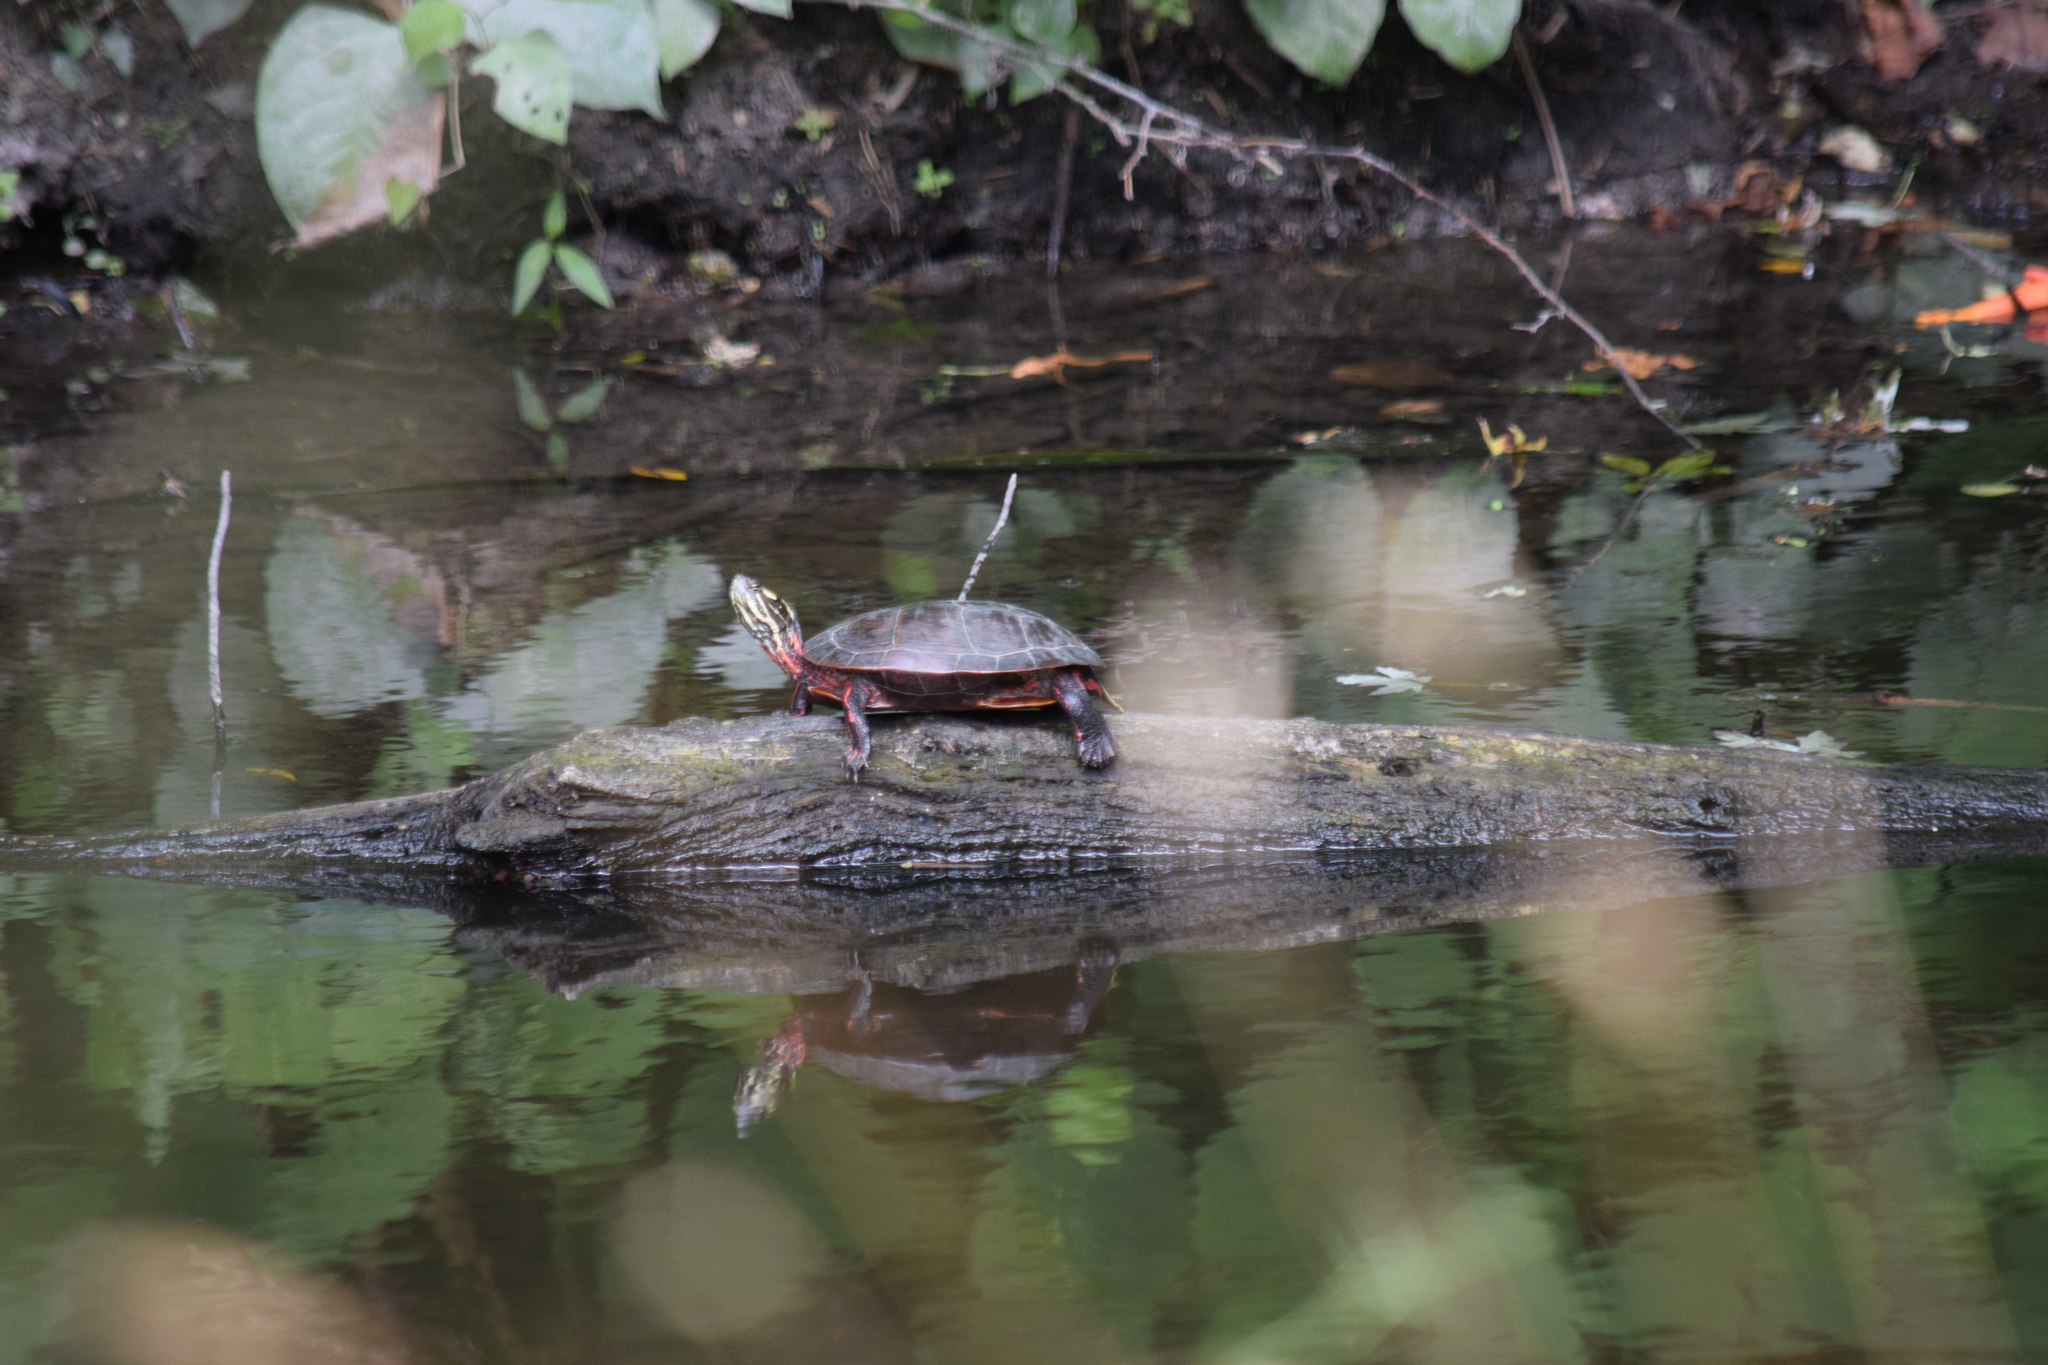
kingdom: Animalia
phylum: Chordata
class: Testudines
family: Emydidae
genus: Chrysemys
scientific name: Chrysemys picta
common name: Painted turtle
